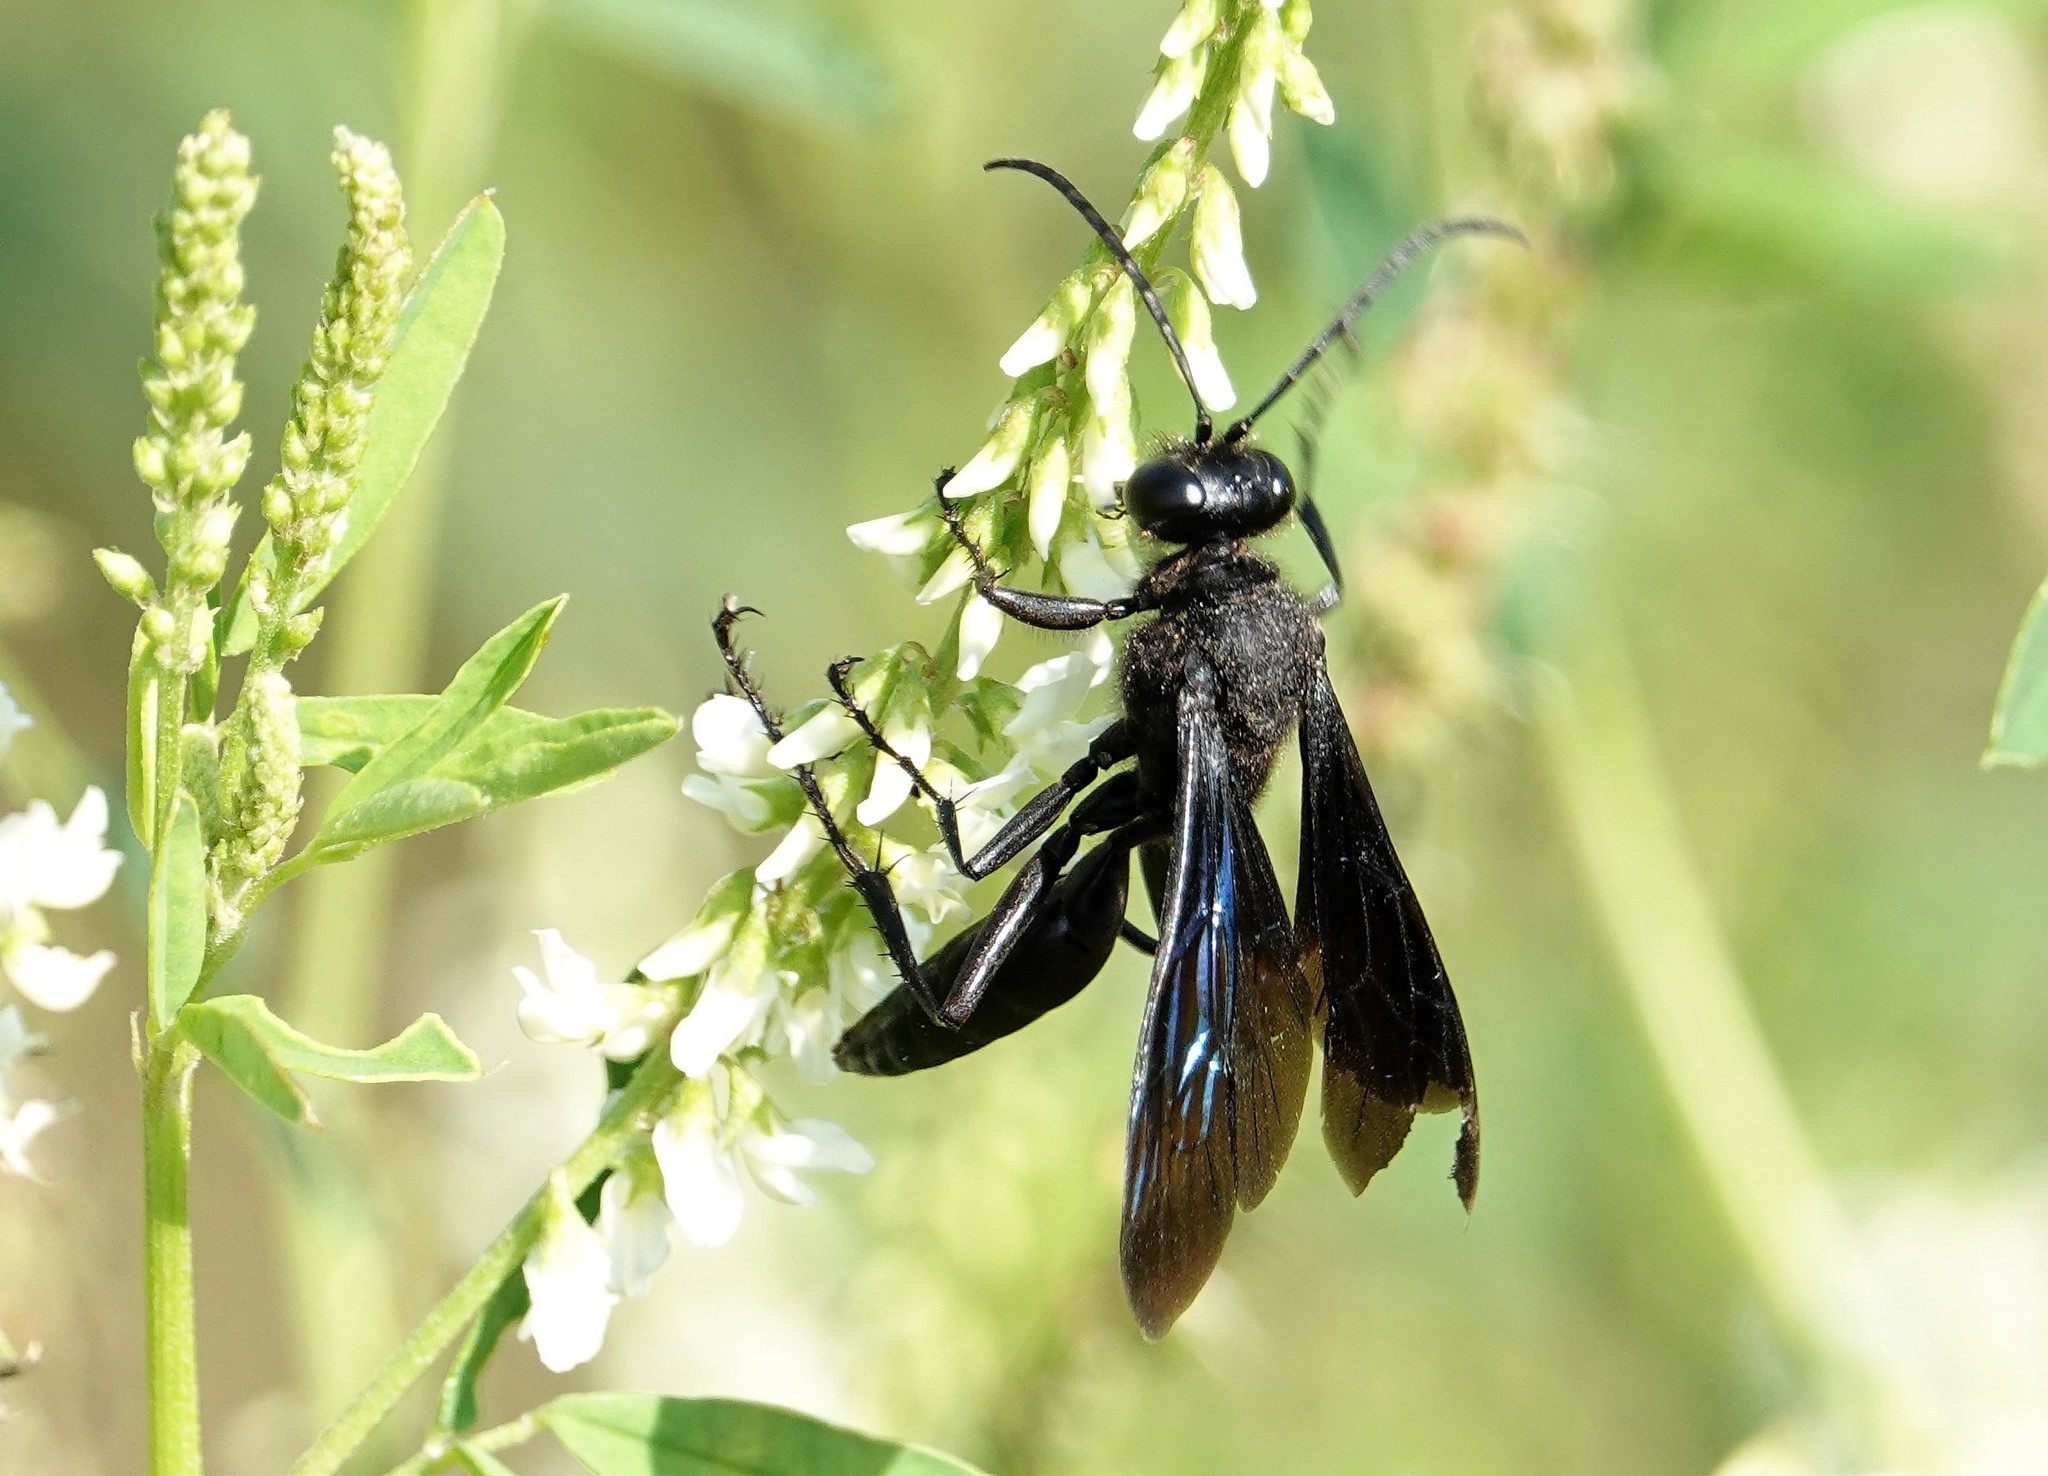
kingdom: Animalia
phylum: Arthropoda
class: Insecta
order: Hymenoptera
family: Sphecidae
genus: Sphex
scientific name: Sphex pensylvanicus
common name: Great black digger wasp
